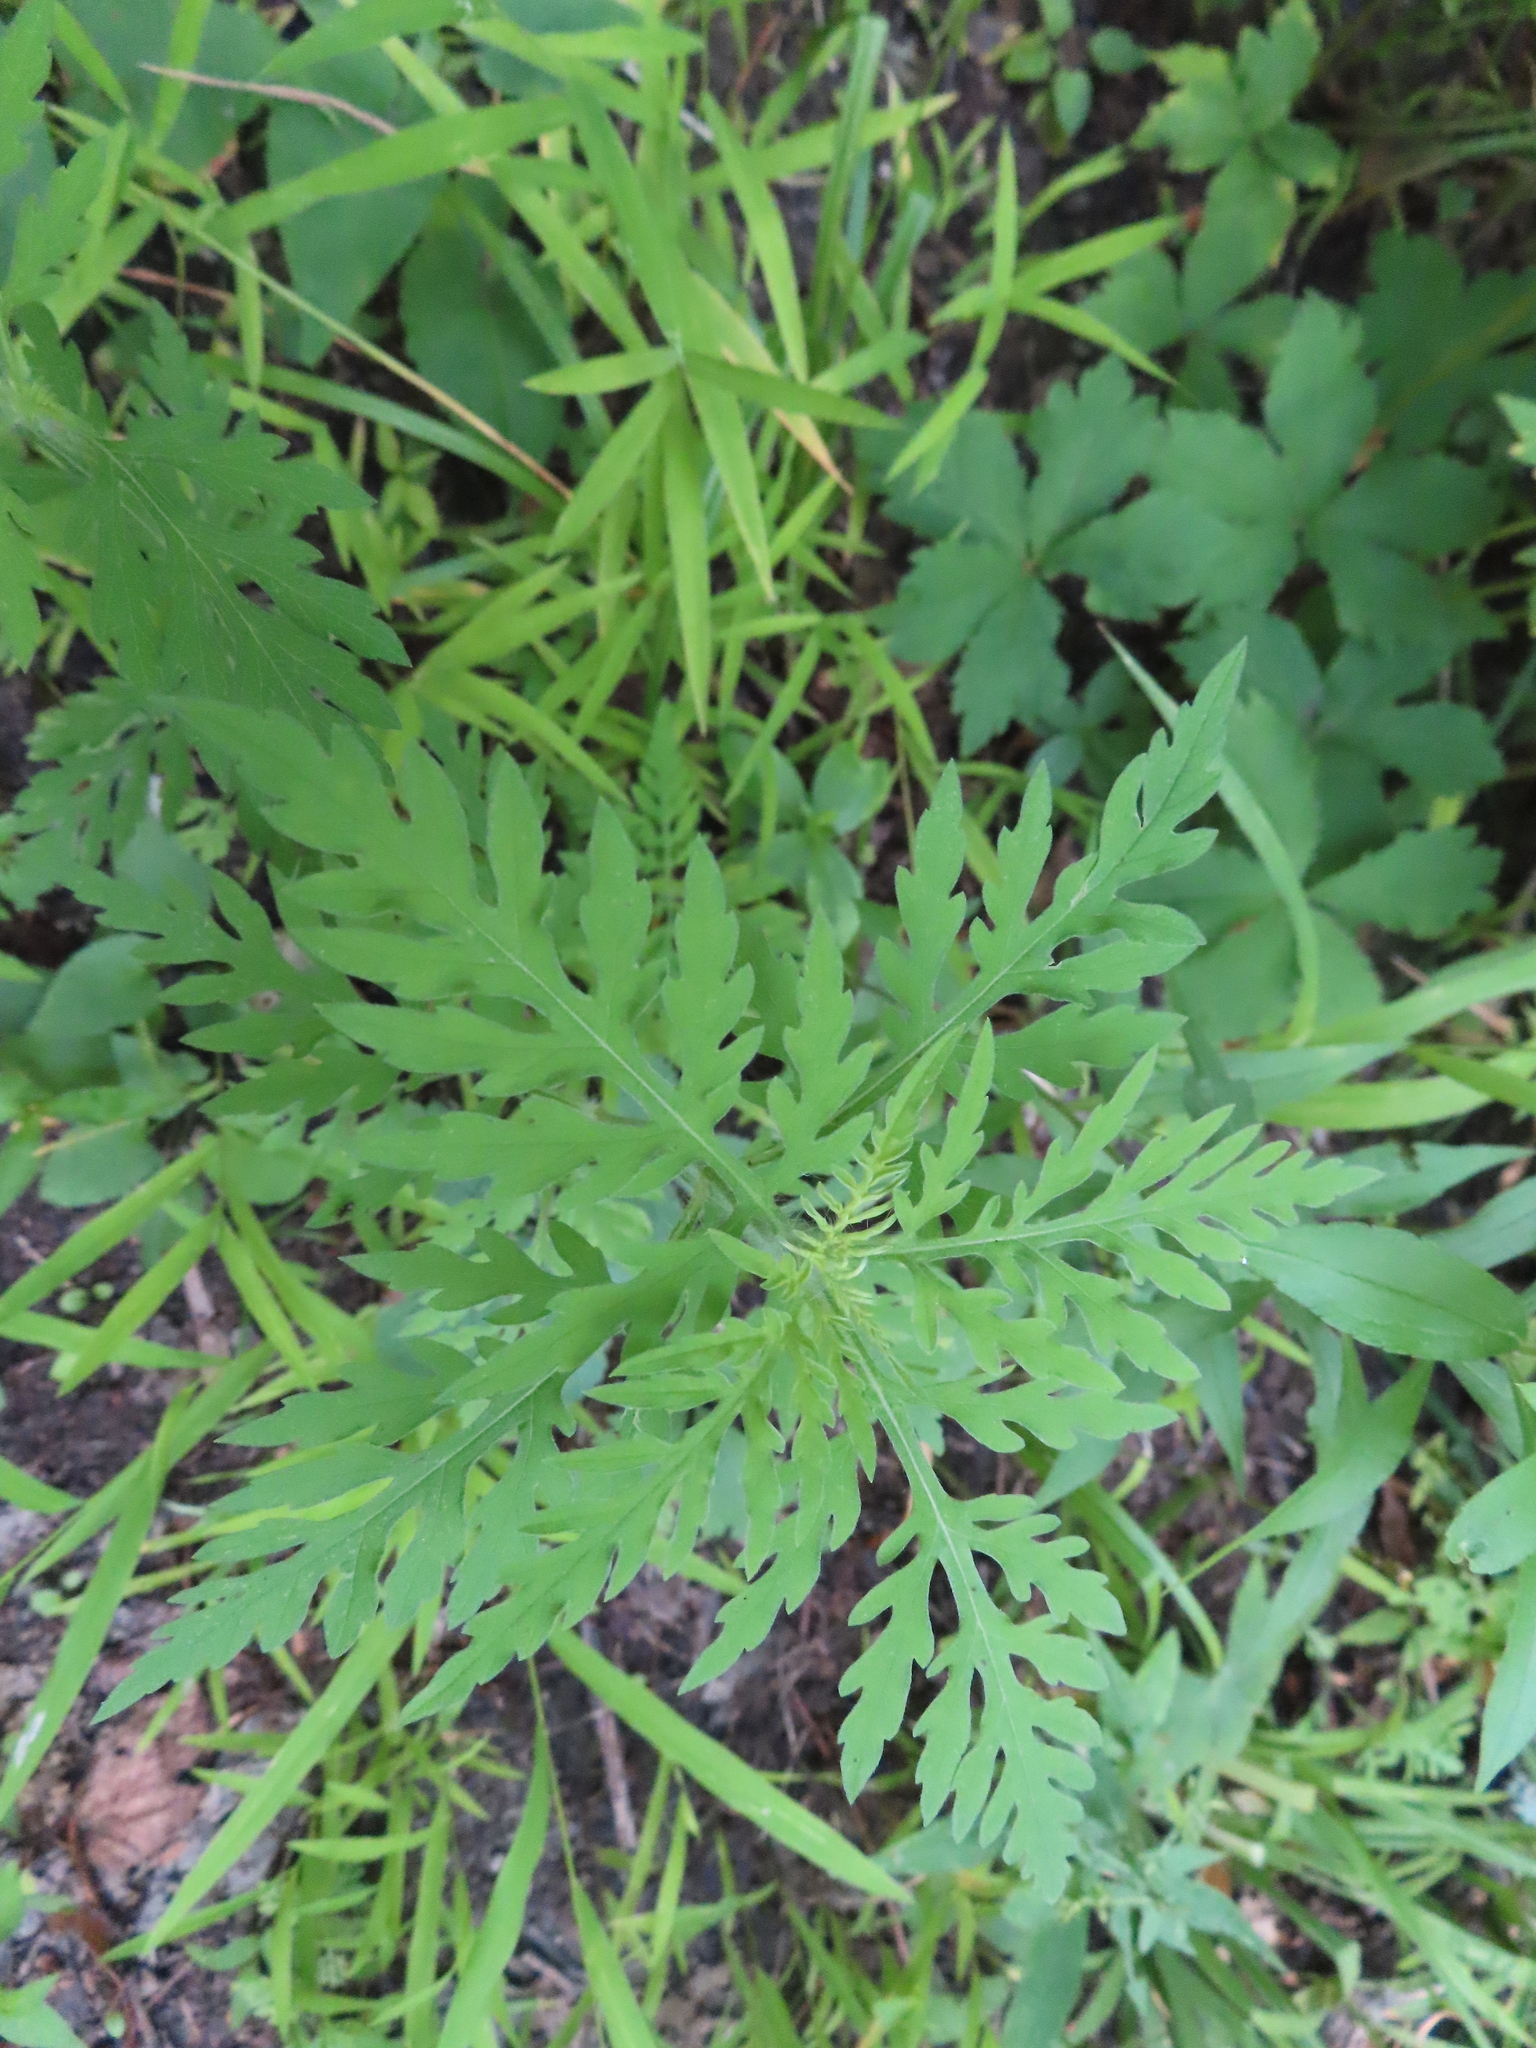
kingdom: Plantae
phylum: Tracheophyta
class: Magnoliopsida
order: Asterales
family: Asteraceae
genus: Ambrosia
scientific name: Ambrosia artemisiifolia
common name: Annual ragweed
